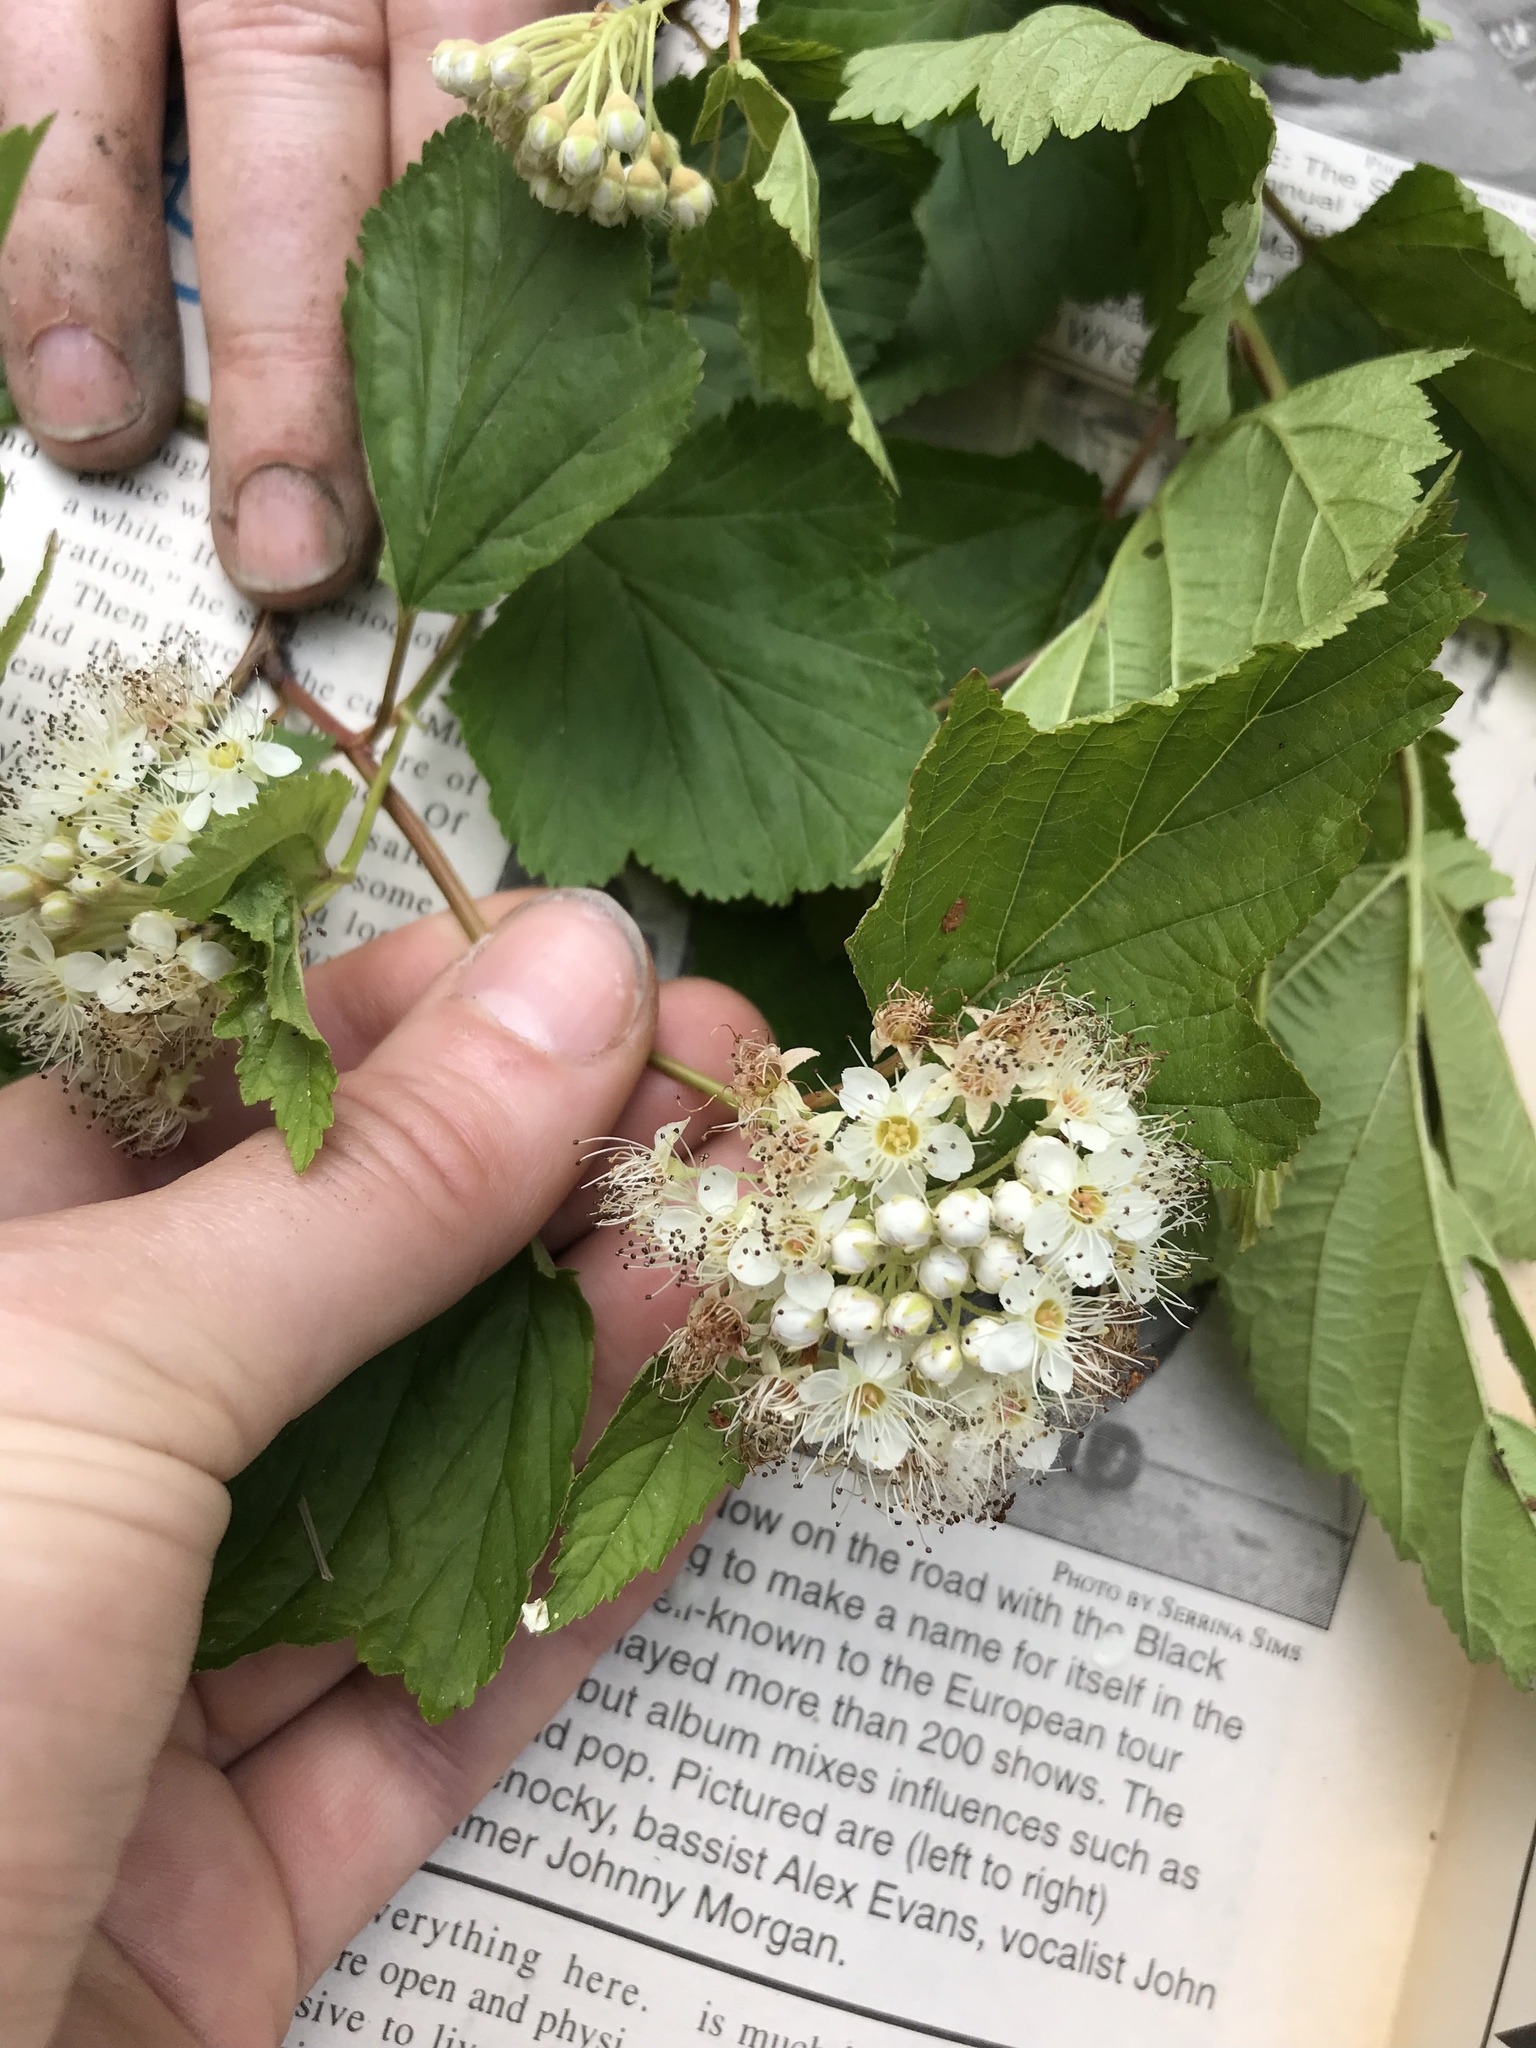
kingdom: Plantae
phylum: Tracheophyta
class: Magnoliopsida
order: Rosales
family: Rosaceae
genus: Physocarpus
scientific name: Physocarpus opulifolius
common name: Ninebark
